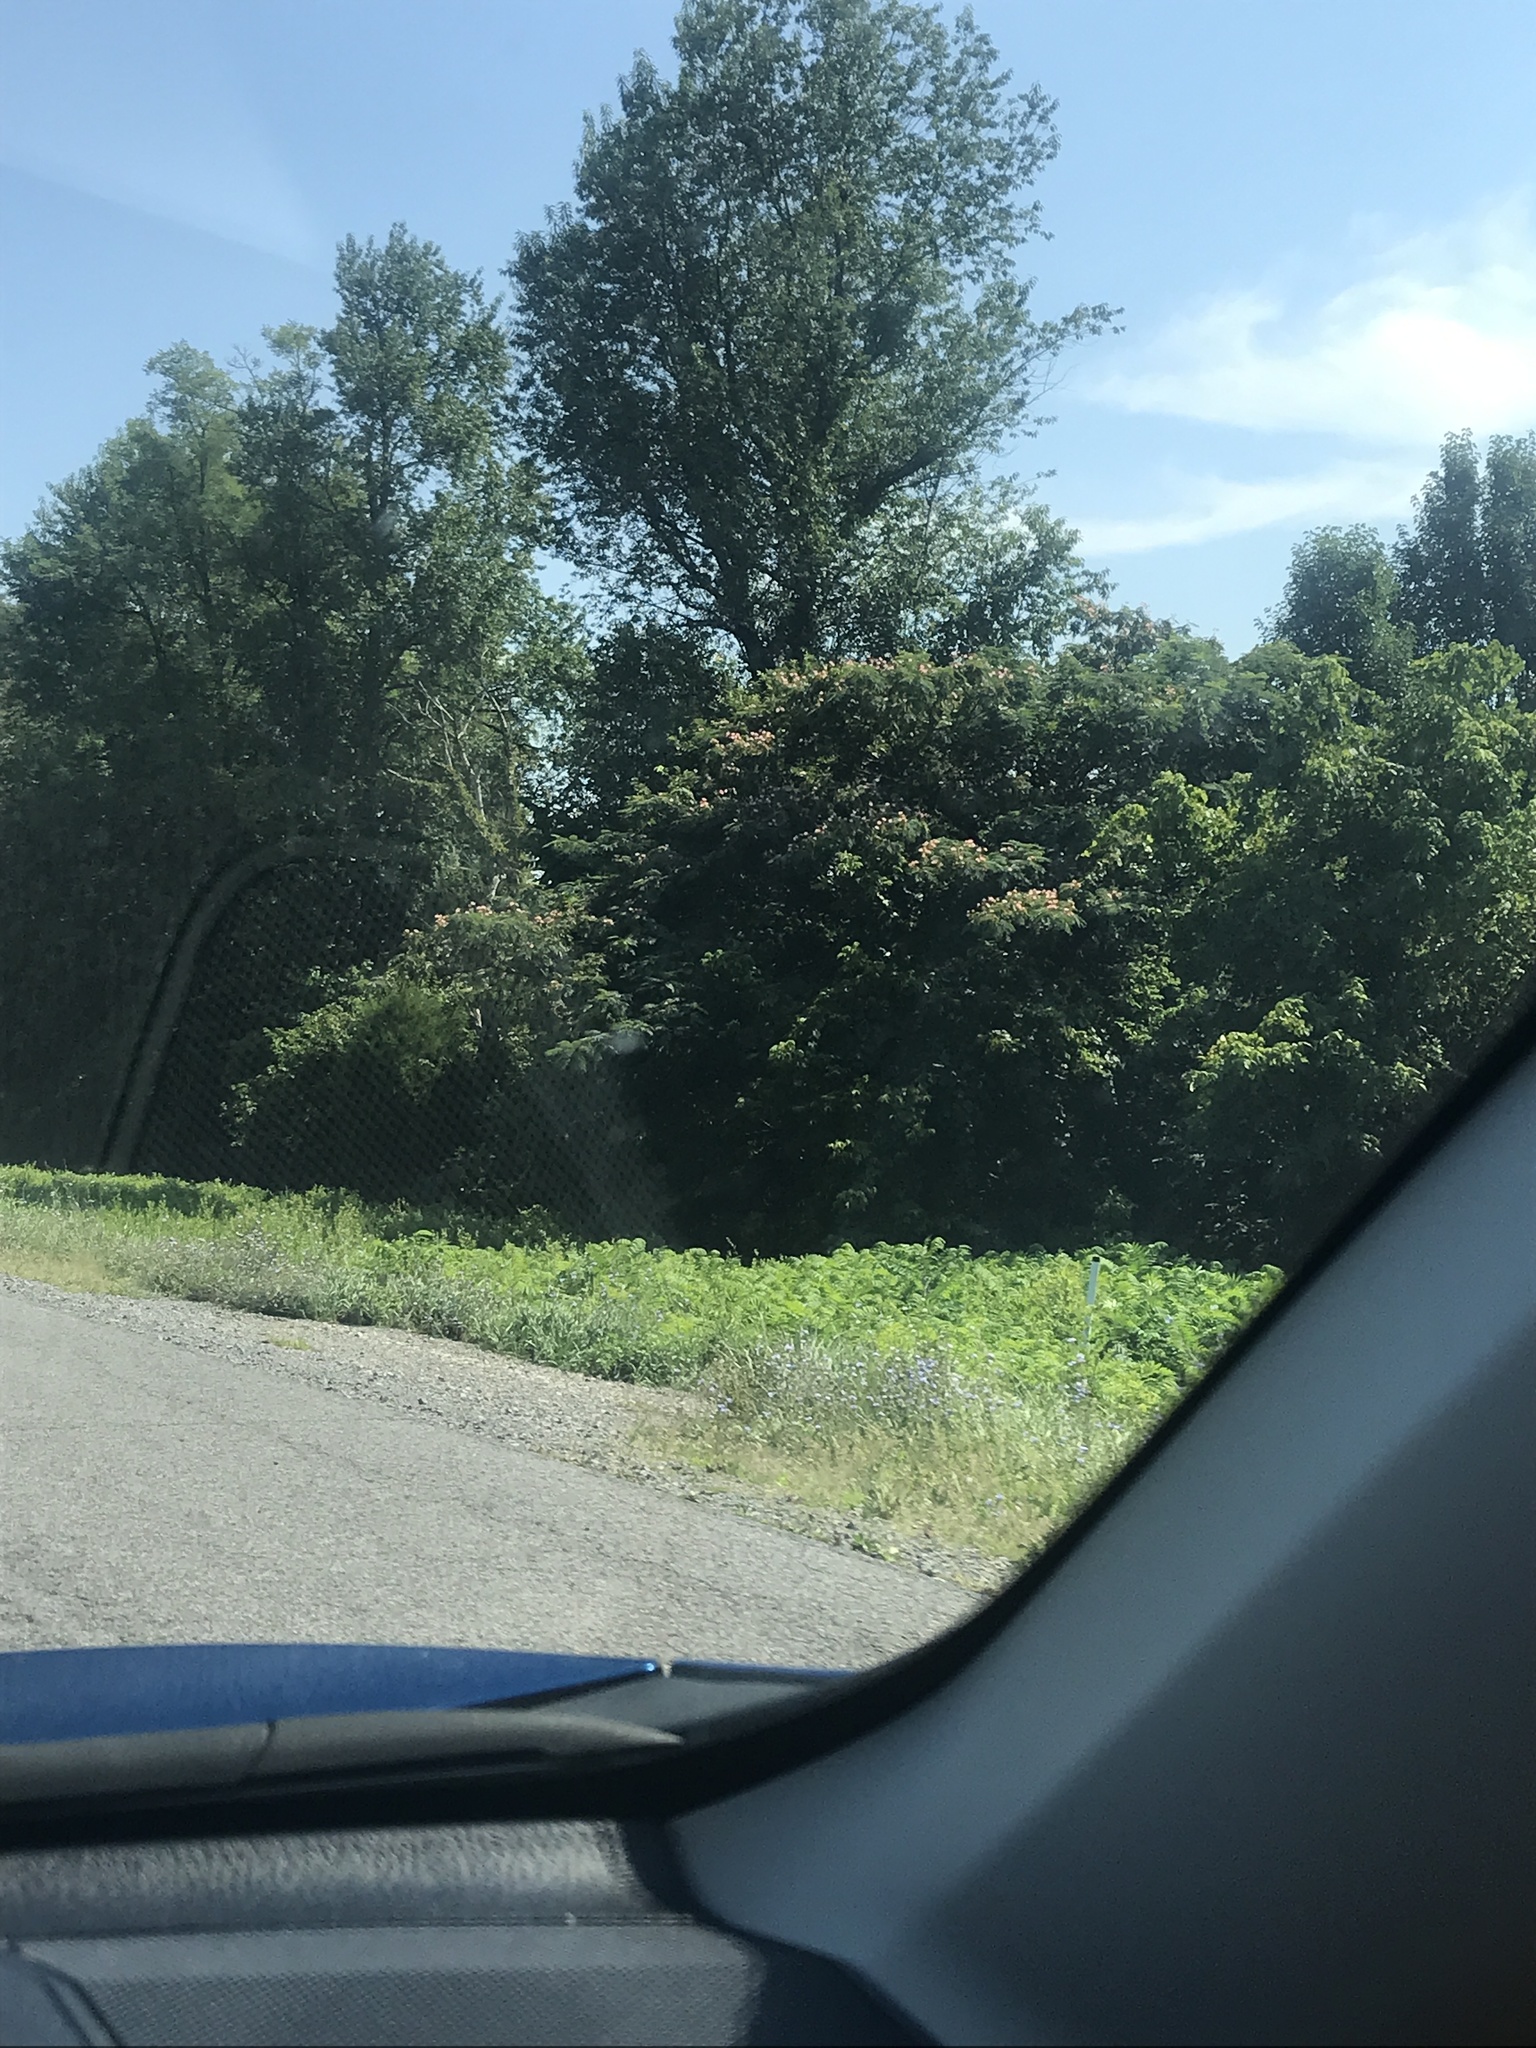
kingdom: Plantae
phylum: Tracheophyta
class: Magnoliopsida
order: Fabales
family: Fabaceae
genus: Albizia
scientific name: Albizia julibrissin
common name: Silktree
